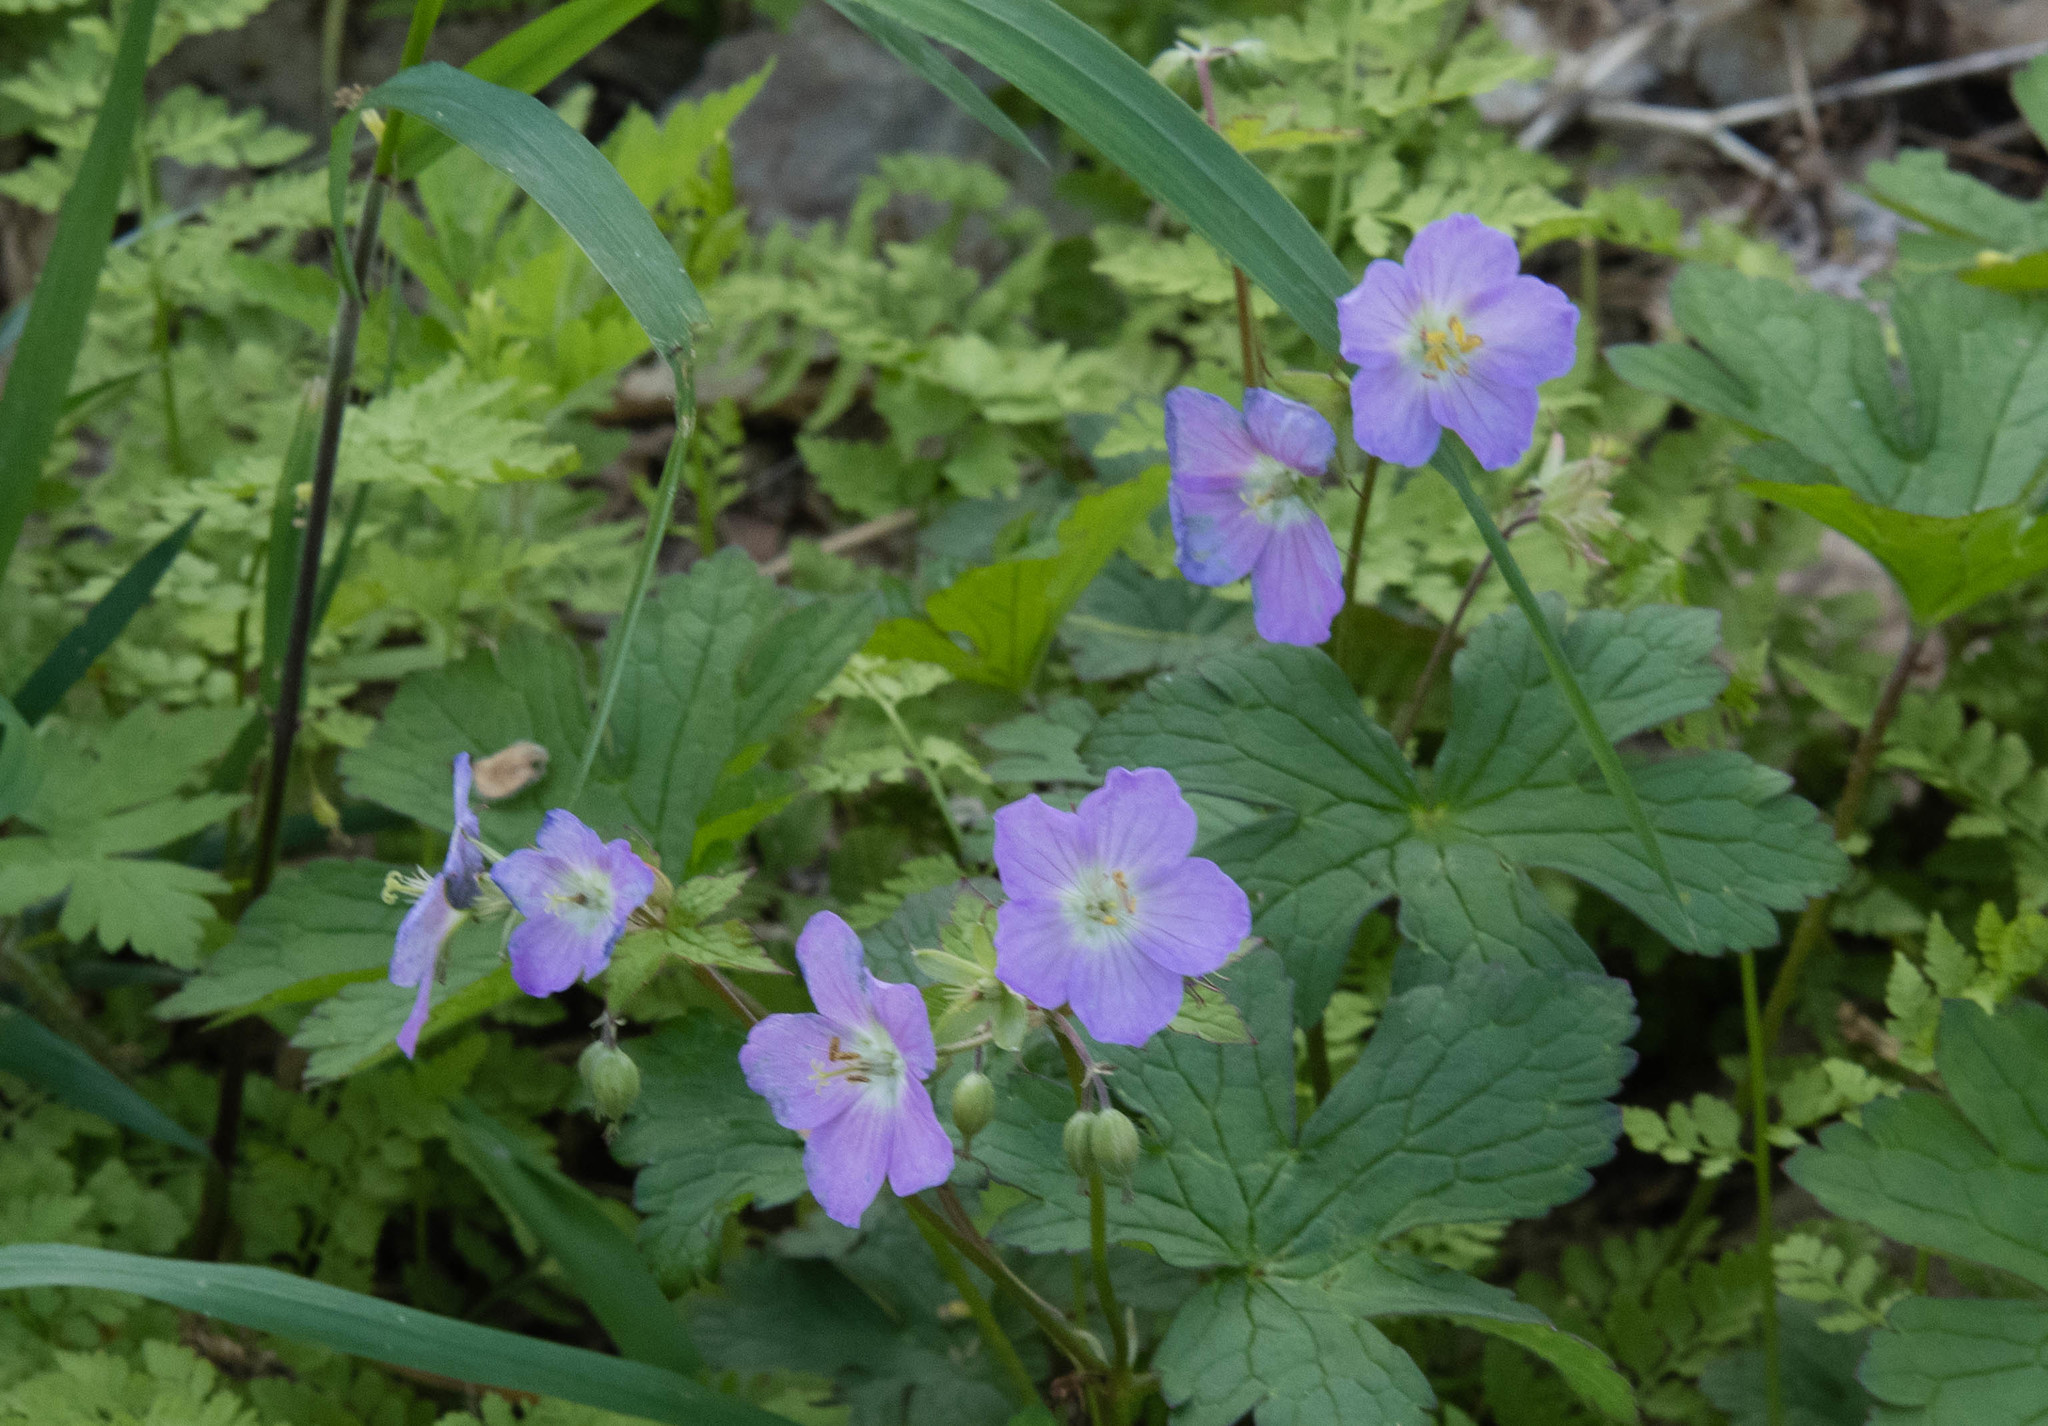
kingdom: Plantae
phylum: Tracheophyta
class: Magnoliopsida
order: Geraniales
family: Geraniaceae
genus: Geranium
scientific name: Geranium maculatum
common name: Spotted geranium
